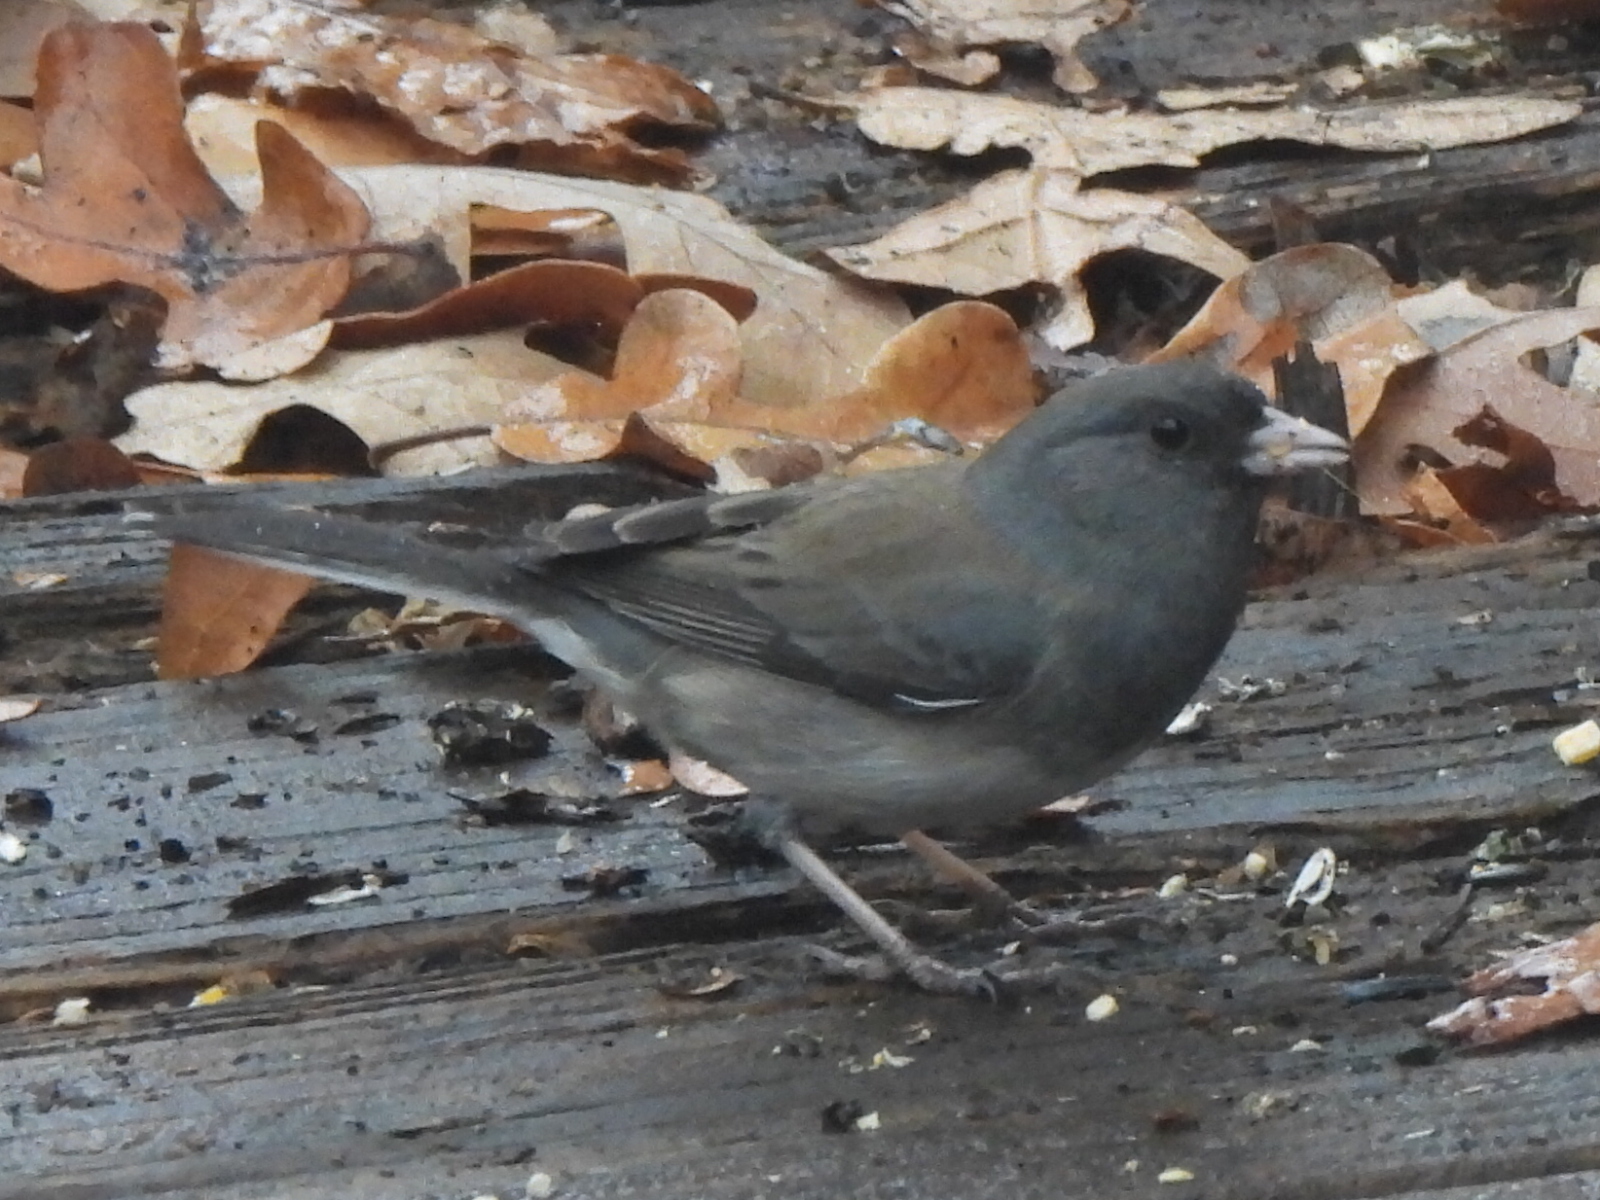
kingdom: Animalia
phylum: Chordata
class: Aves
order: Passeriformes
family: Passerellidae
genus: Junco
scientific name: Junco hyemalis
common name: Dark-eyed junco
